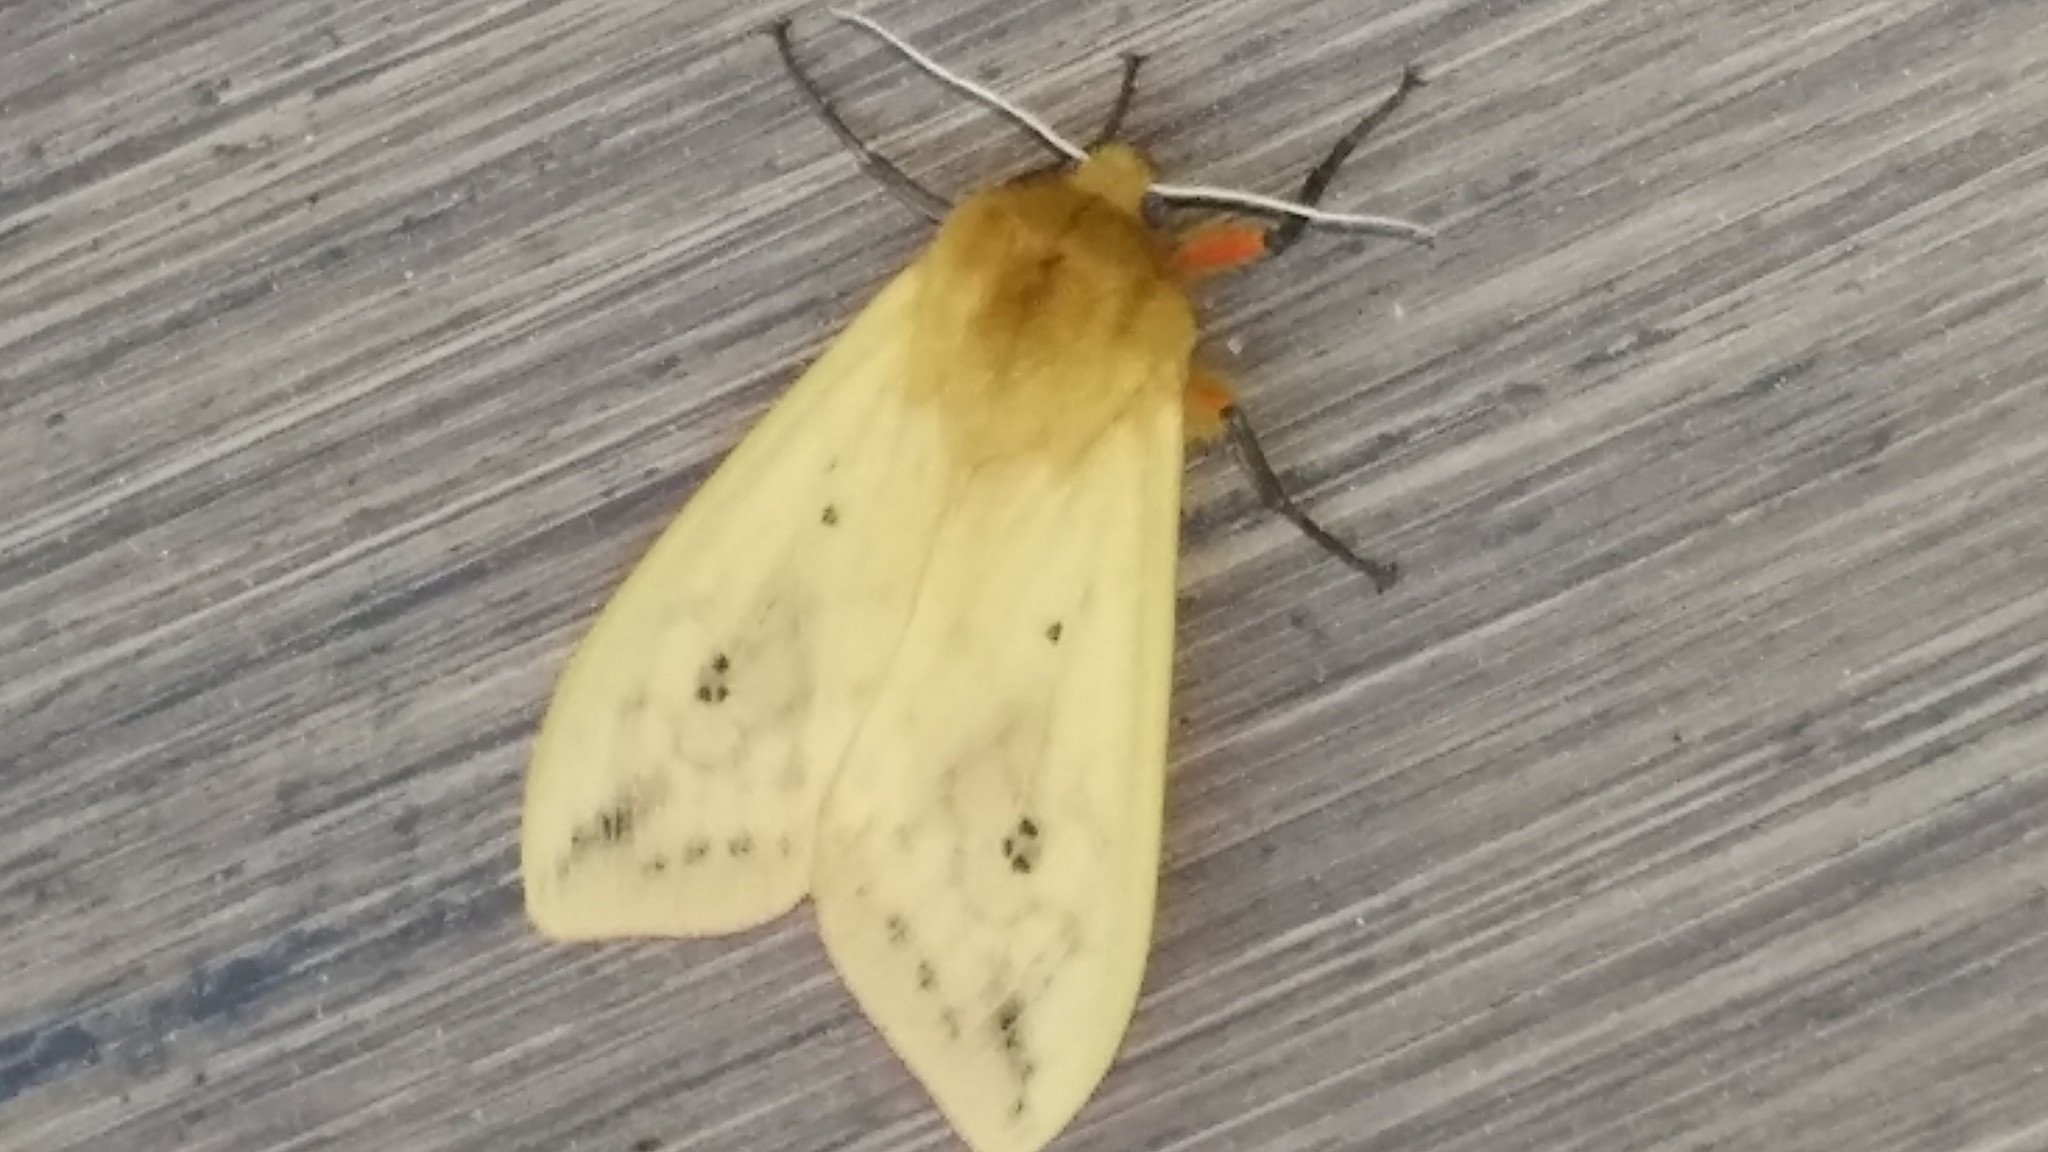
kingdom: Animalia
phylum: Arthropoda
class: Insecta
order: Lepidoptera
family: Erebidae
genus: Pyrrharctia
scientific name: Pyrrharctia isabella
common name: Isabella tiger moth
